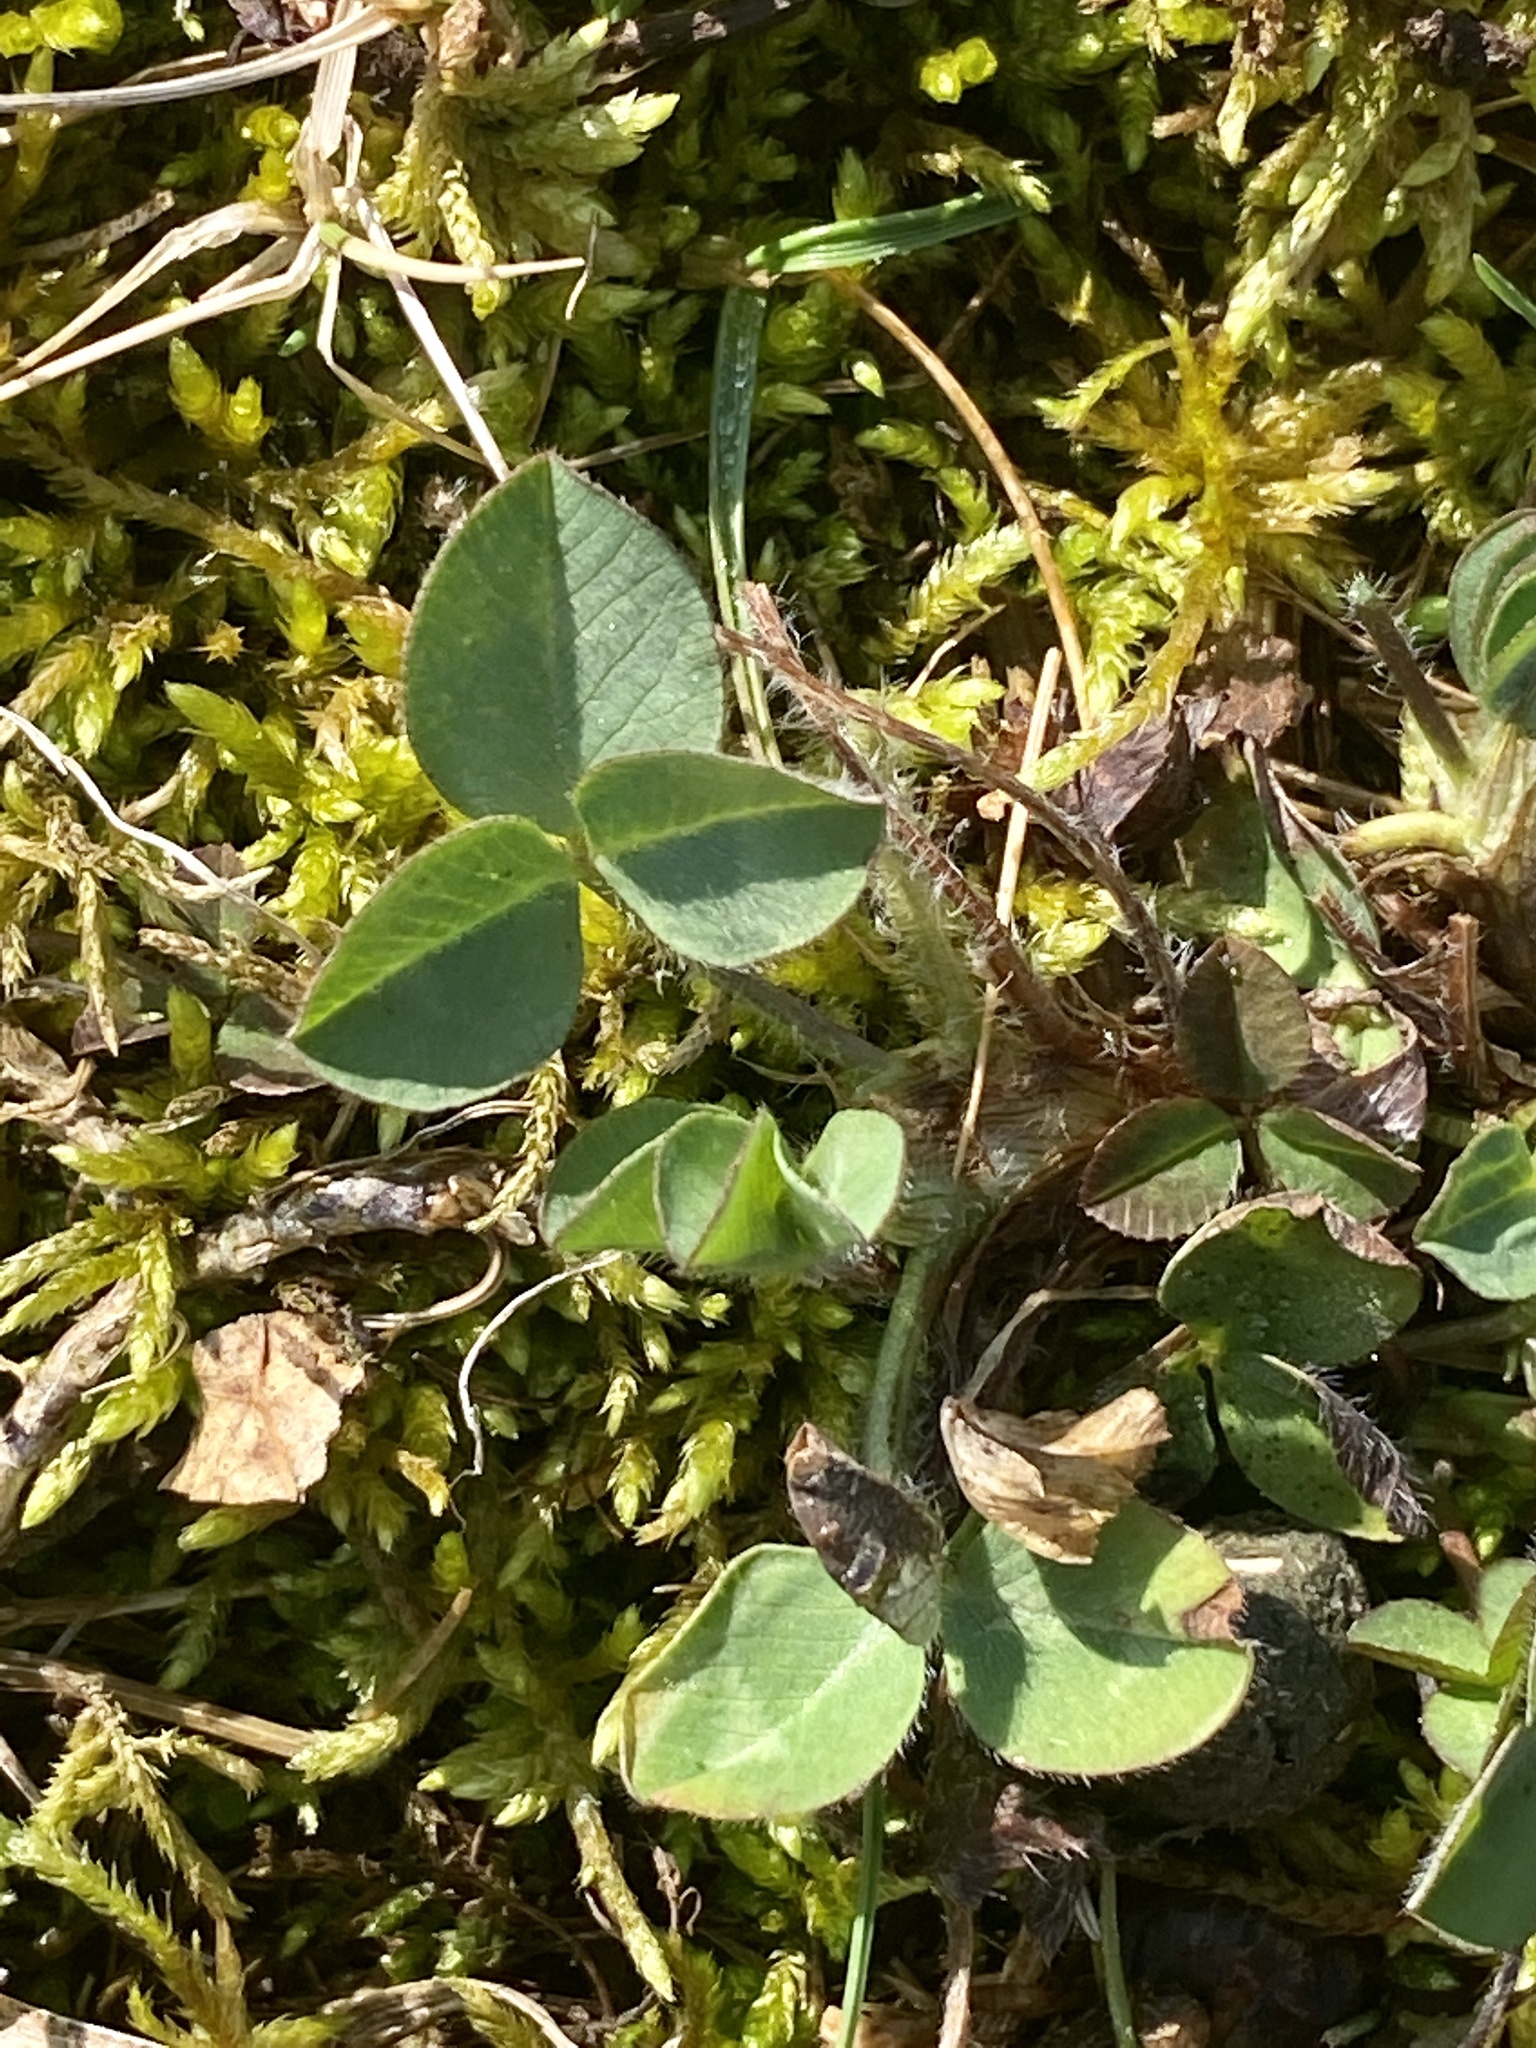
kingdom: Plantae
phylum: Tracheophyta
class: Magnoliopsida
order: Fabales
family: Fabaceae
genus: Trifolium
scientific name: Trifolium pratense
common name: Red clover
